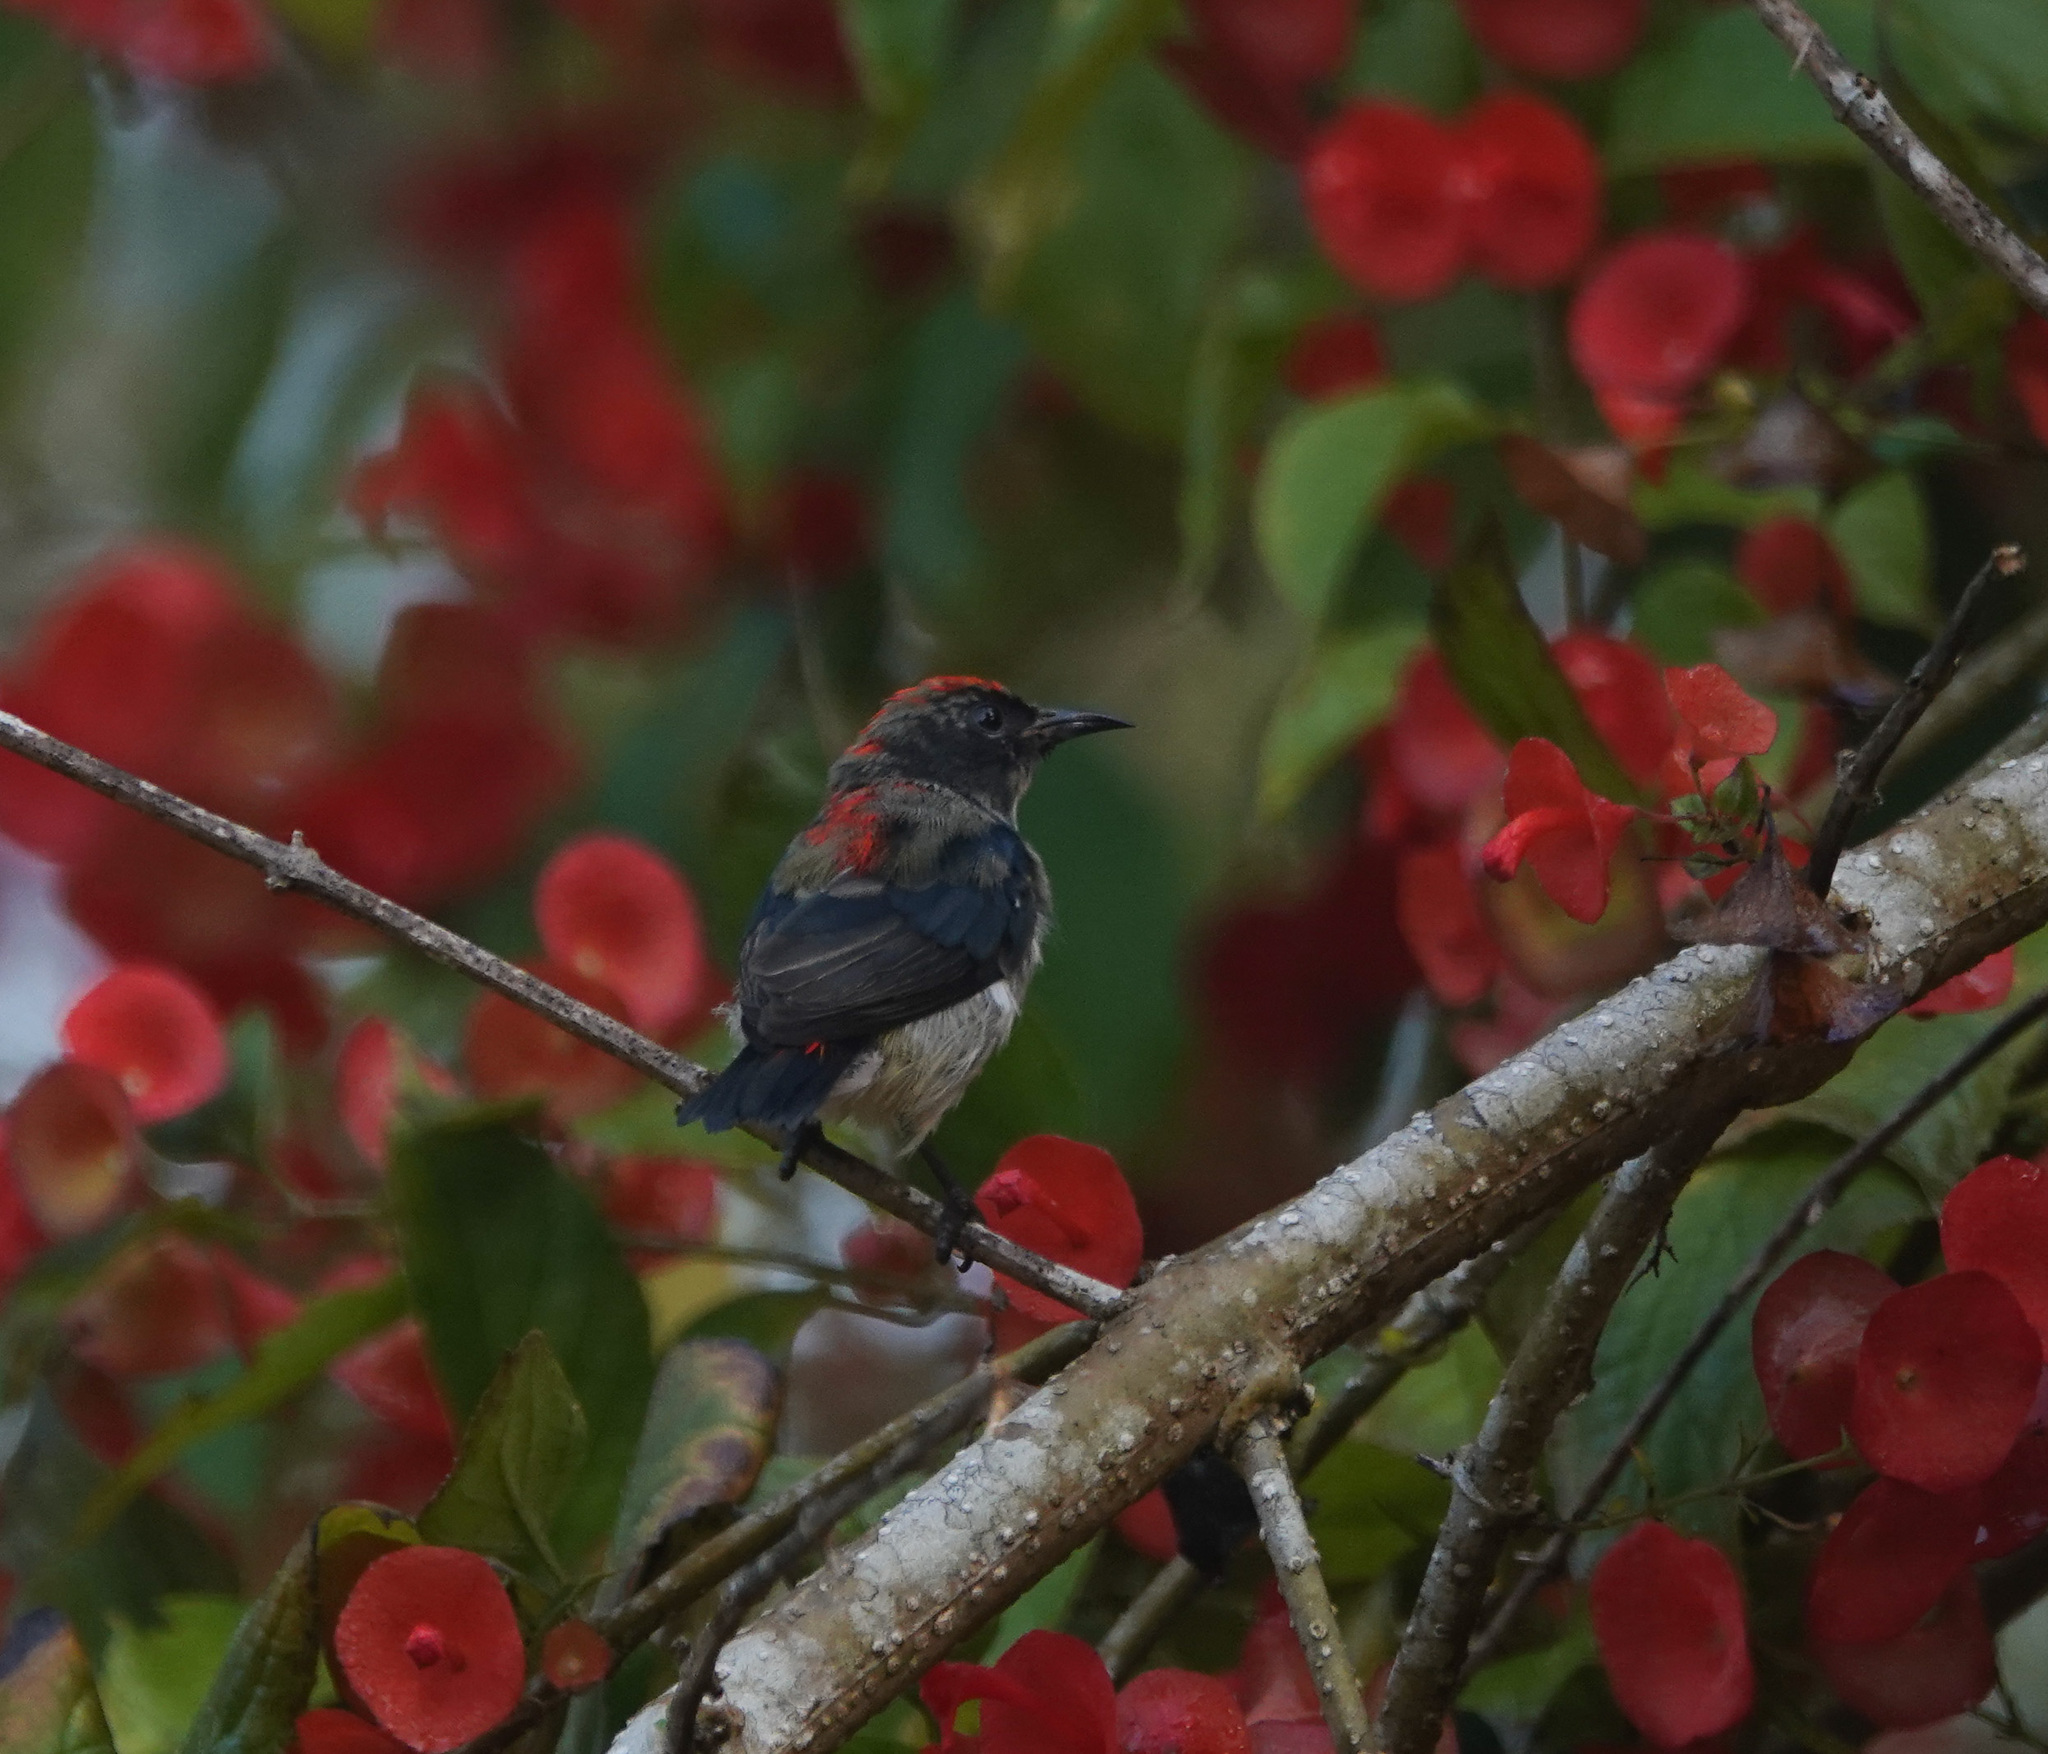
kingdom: Animalia
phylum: Chordata
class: Aves
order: Passeriformes
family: Dicaeidae
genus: Dicaeum
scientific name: Dicaeum cruentatum
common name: Scarlet-backed flowerpecker
